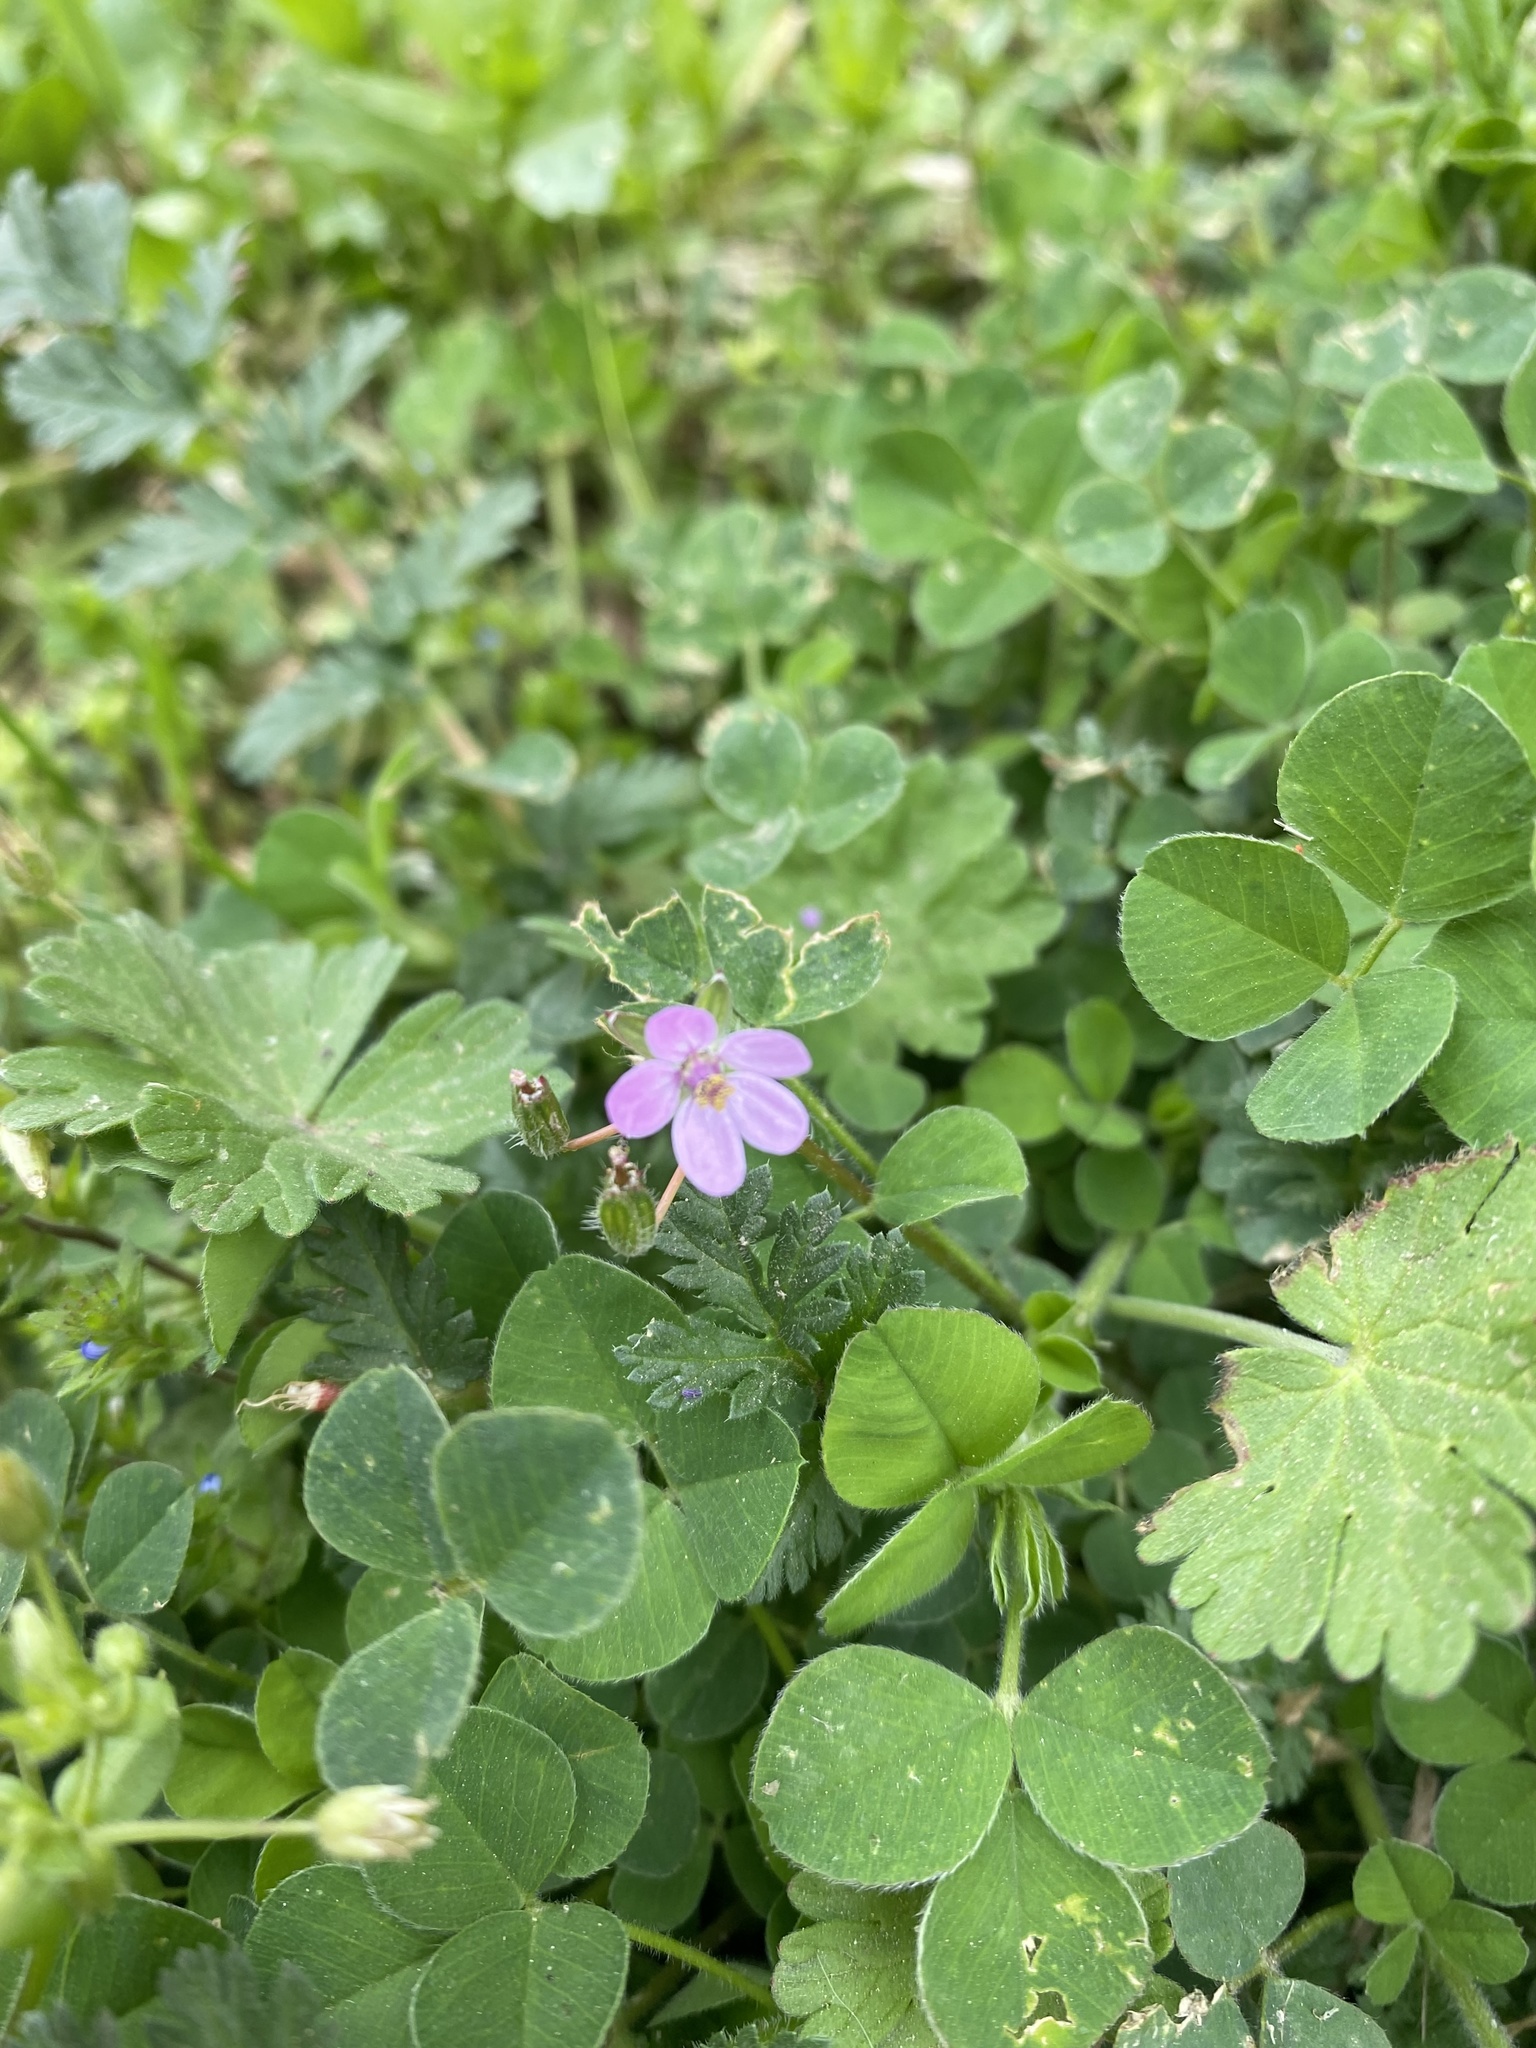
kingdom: Plantae
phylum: Tracheophyta
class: Magnoliopsida
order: Geraniales
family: Geraniaceae
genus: Erodium
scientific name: Erodium cicutarium
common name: Common stork's-bill
